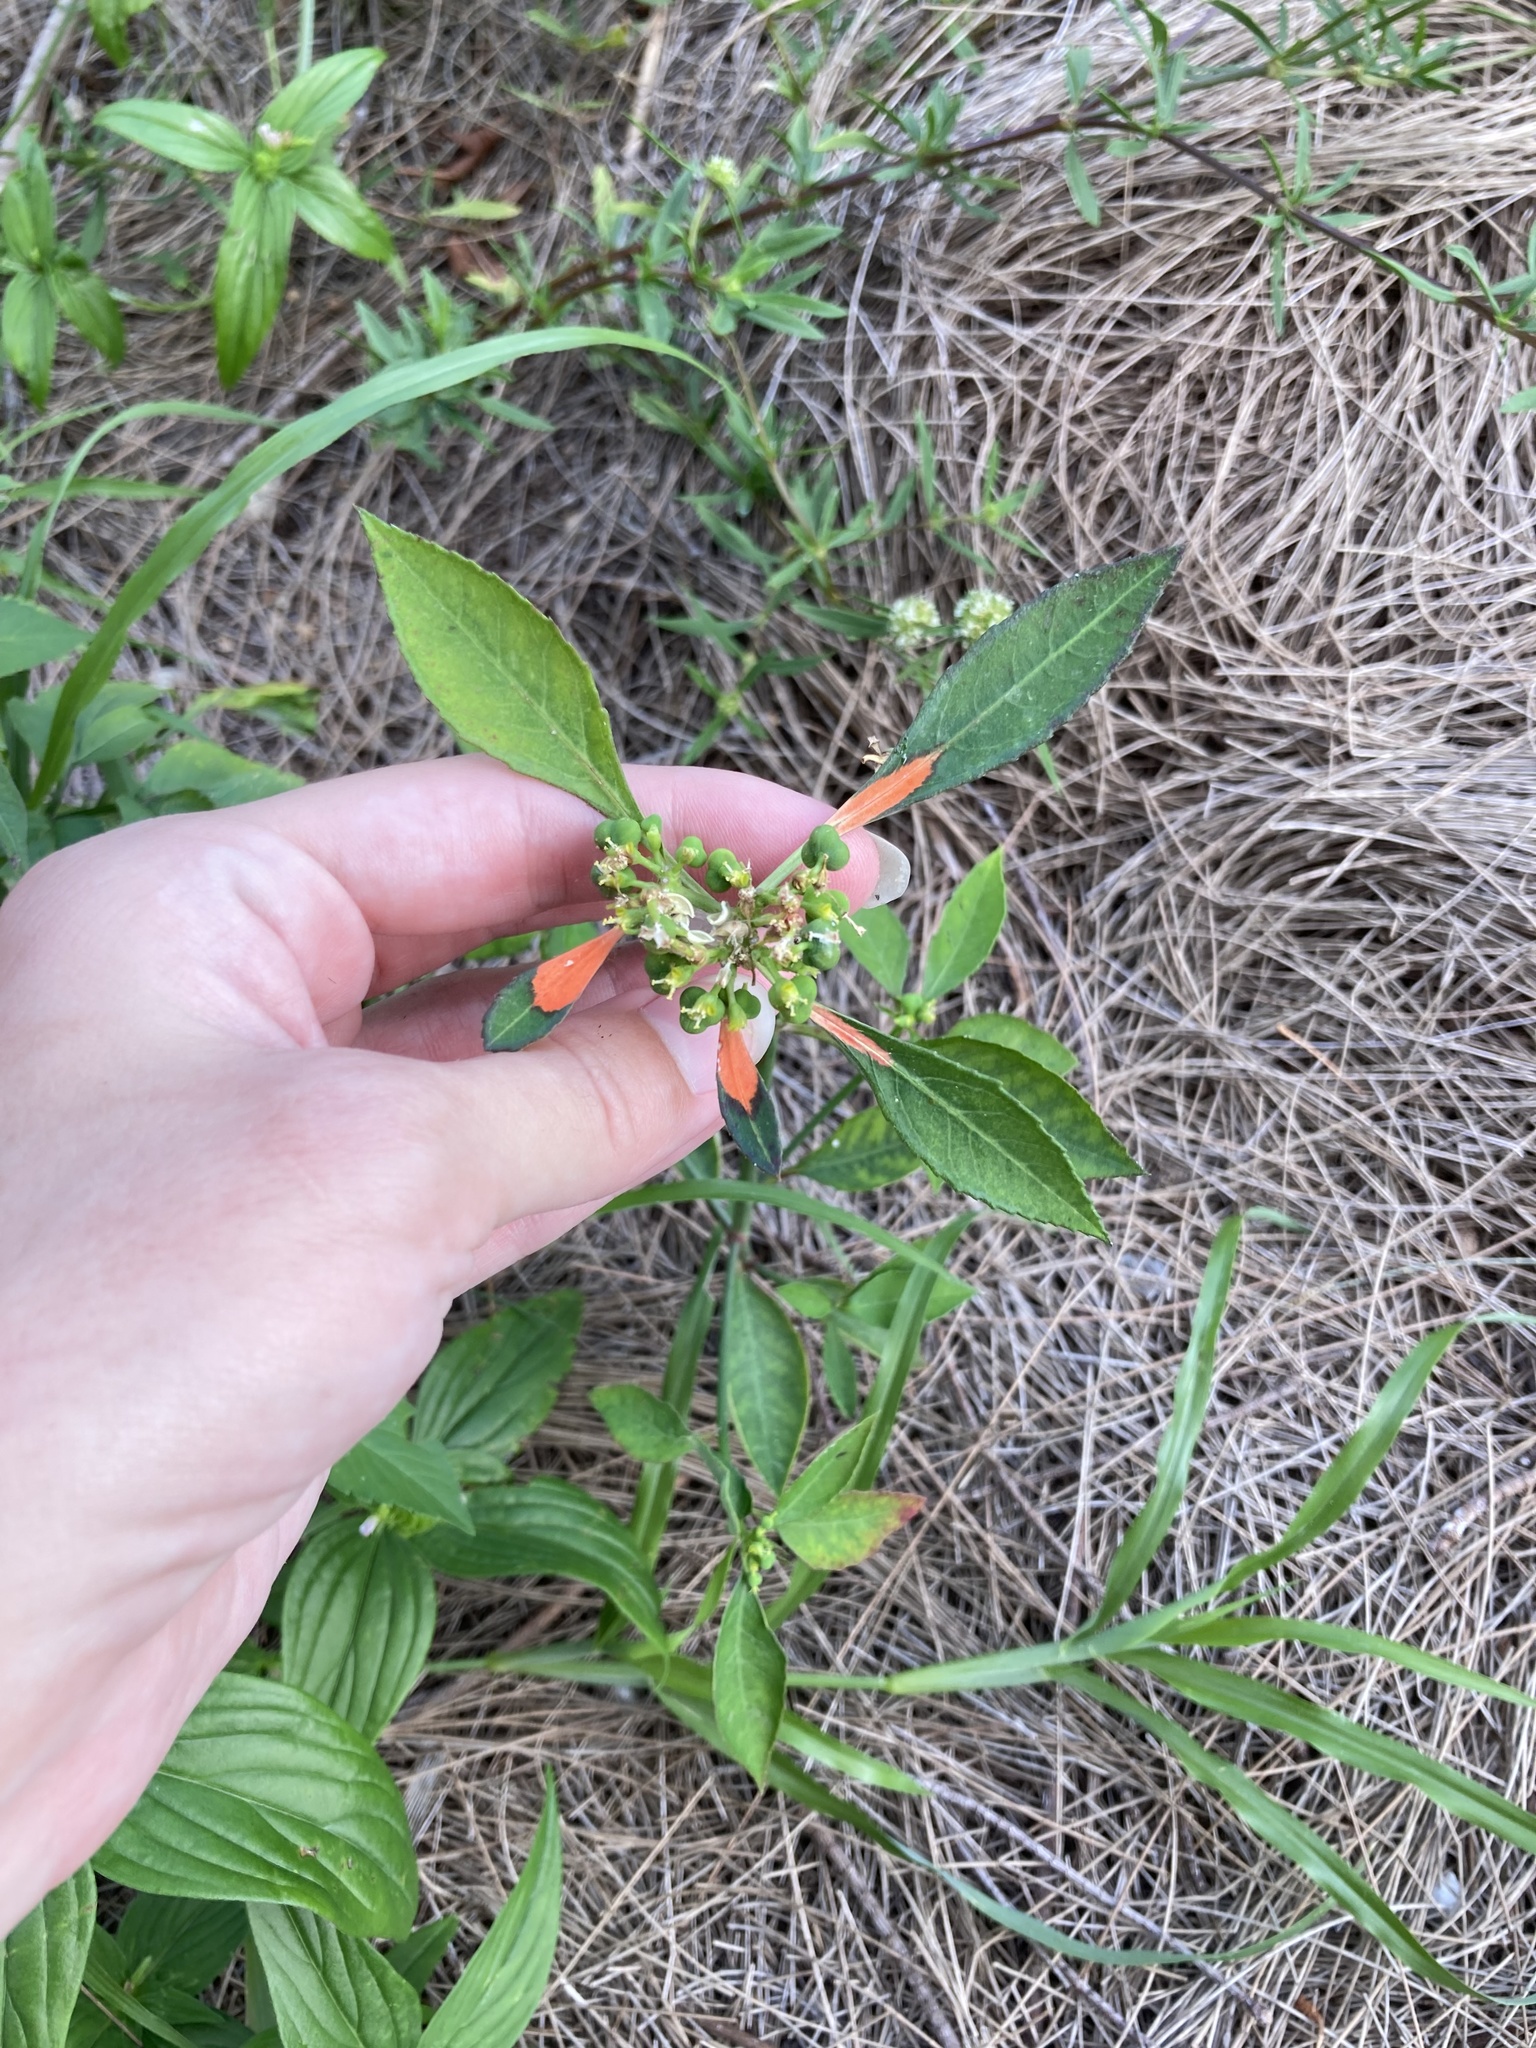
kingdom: Plantae
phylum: Tracheophyta
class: Magnoliopsida
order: Malpighiales
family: Euphorbiaceae
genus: Euphorbia
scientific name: Euphorbia heterophylla
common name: Mexican fireplant
